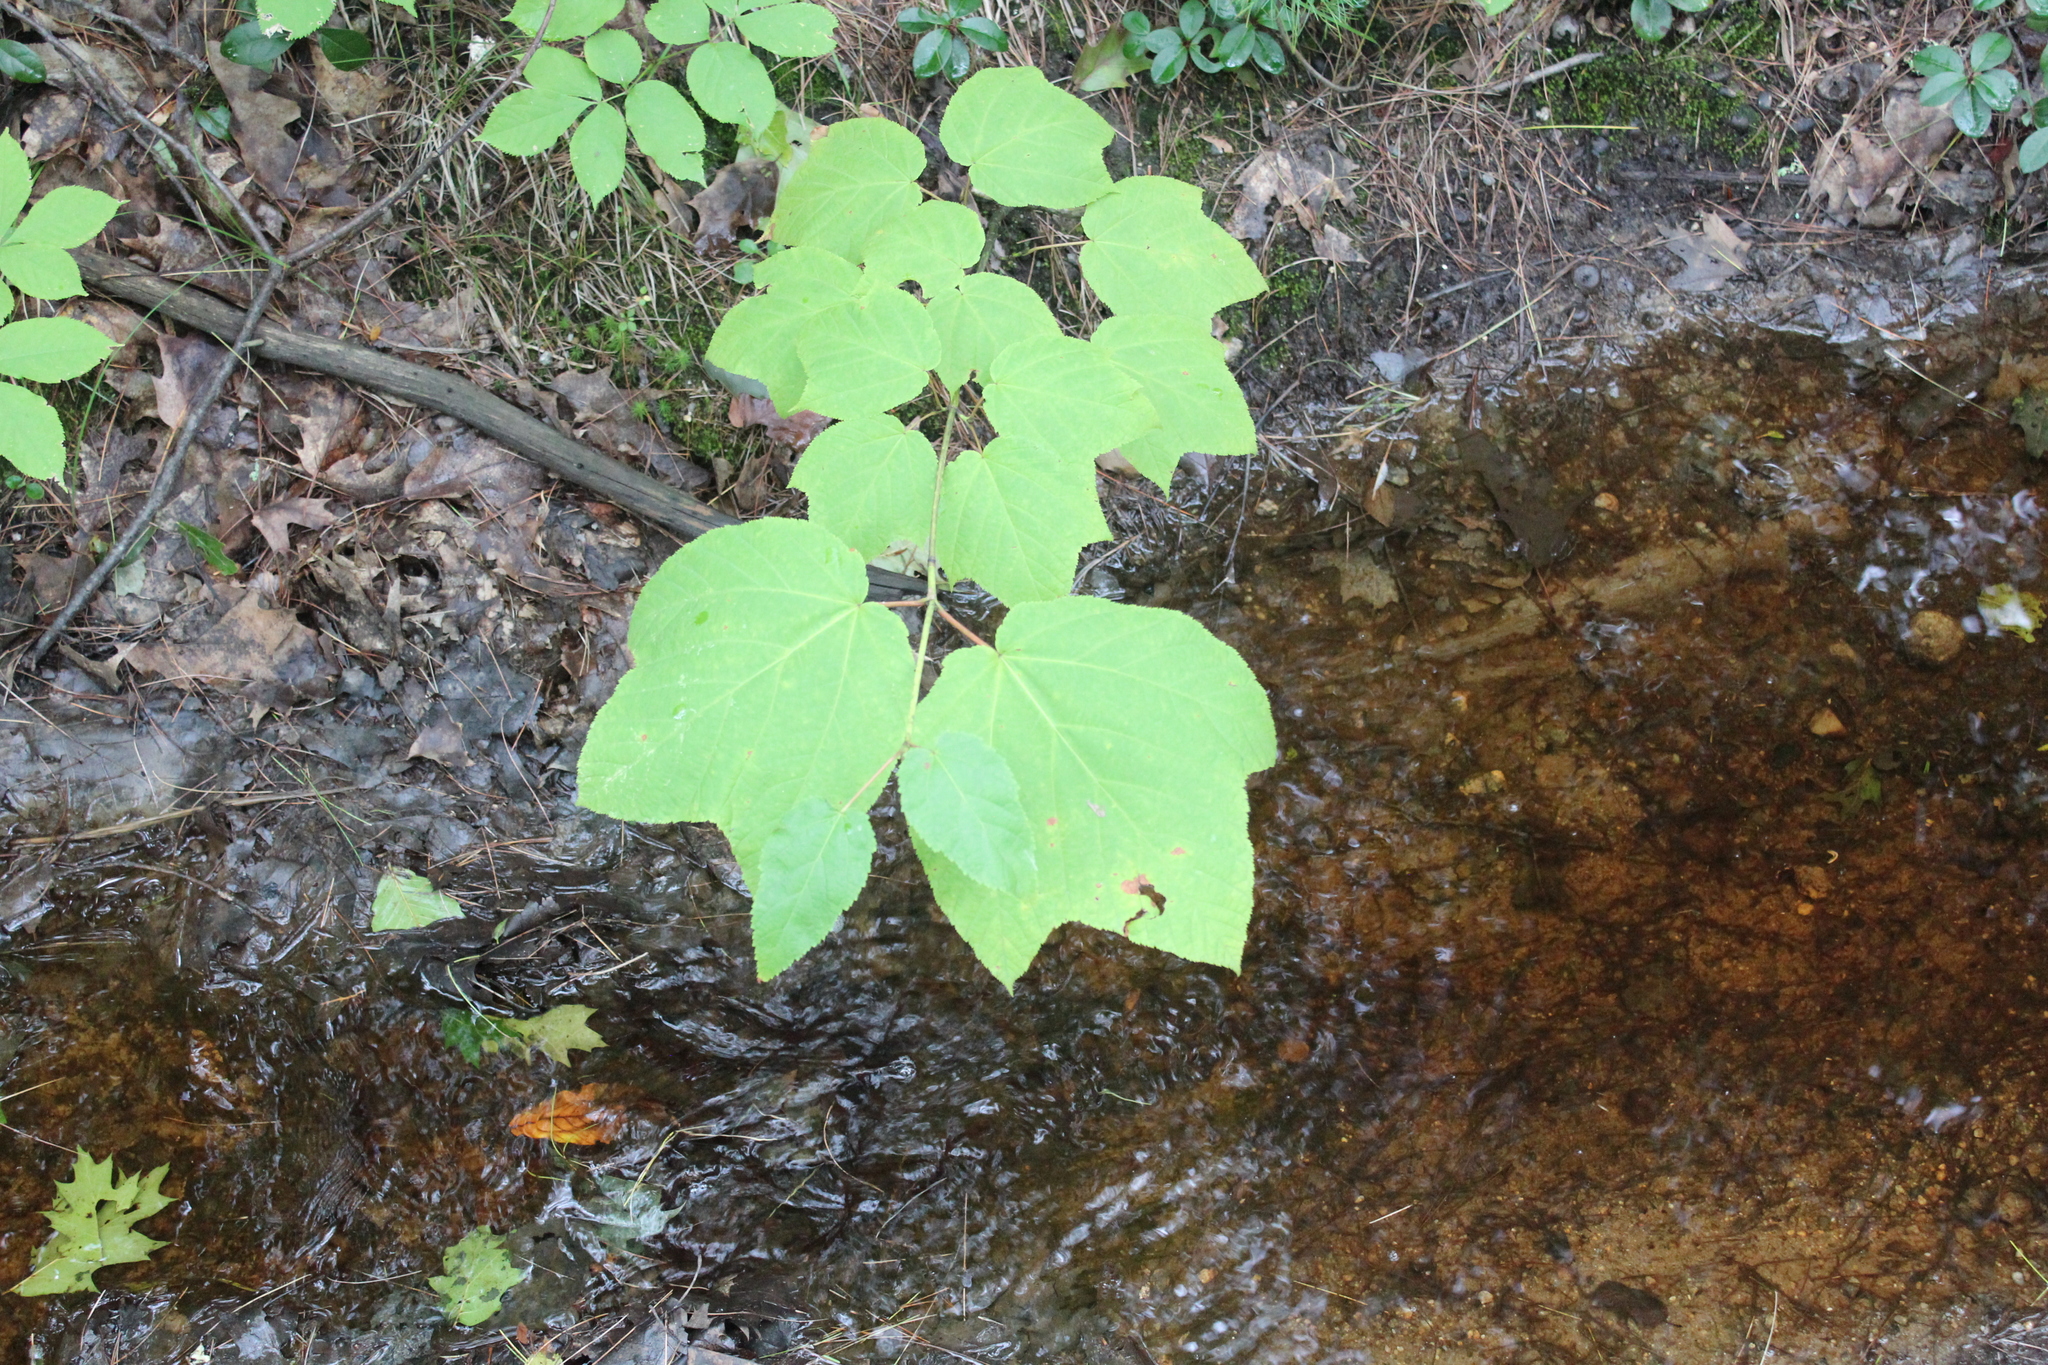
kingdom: Plantae
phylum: Tracheophyta
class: Magnoliopsida
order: Sapindales
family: Sapindaceae
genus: Acer
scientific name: Acer pensylvanicum
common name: Moosewood
